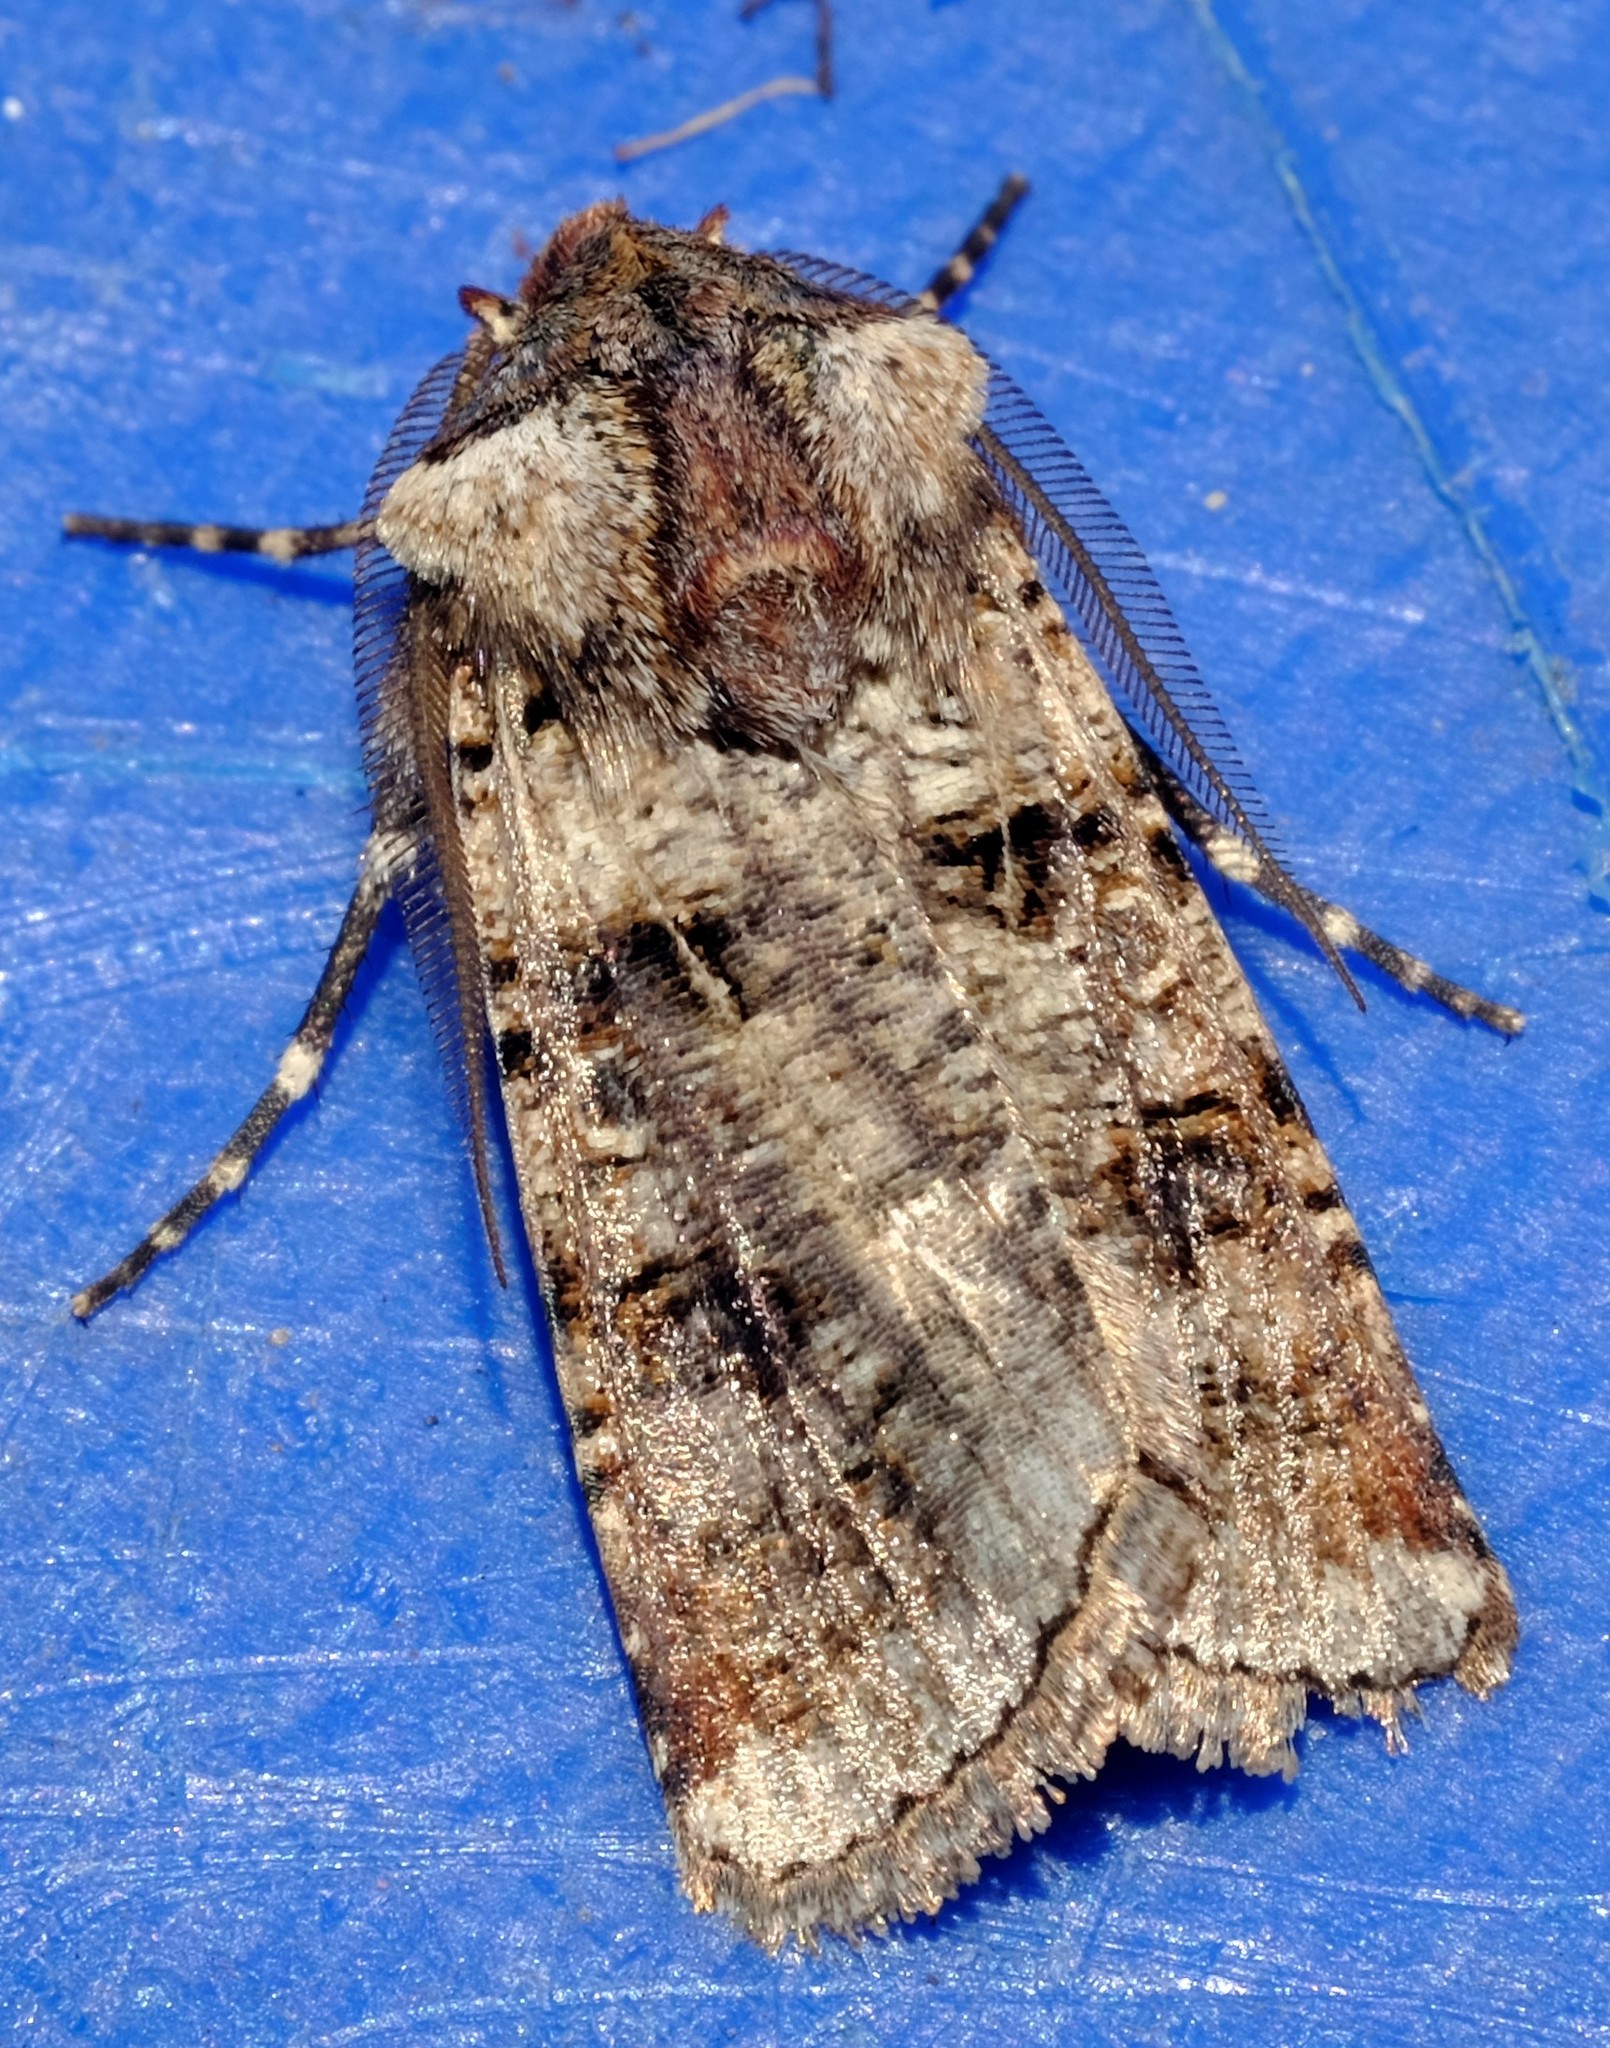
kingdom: Animalia
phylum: Arthropoda
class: Insecta
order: Lepidoptera
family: Noctuidae
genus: Agrotis
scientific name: Agrotis porphyricollis
